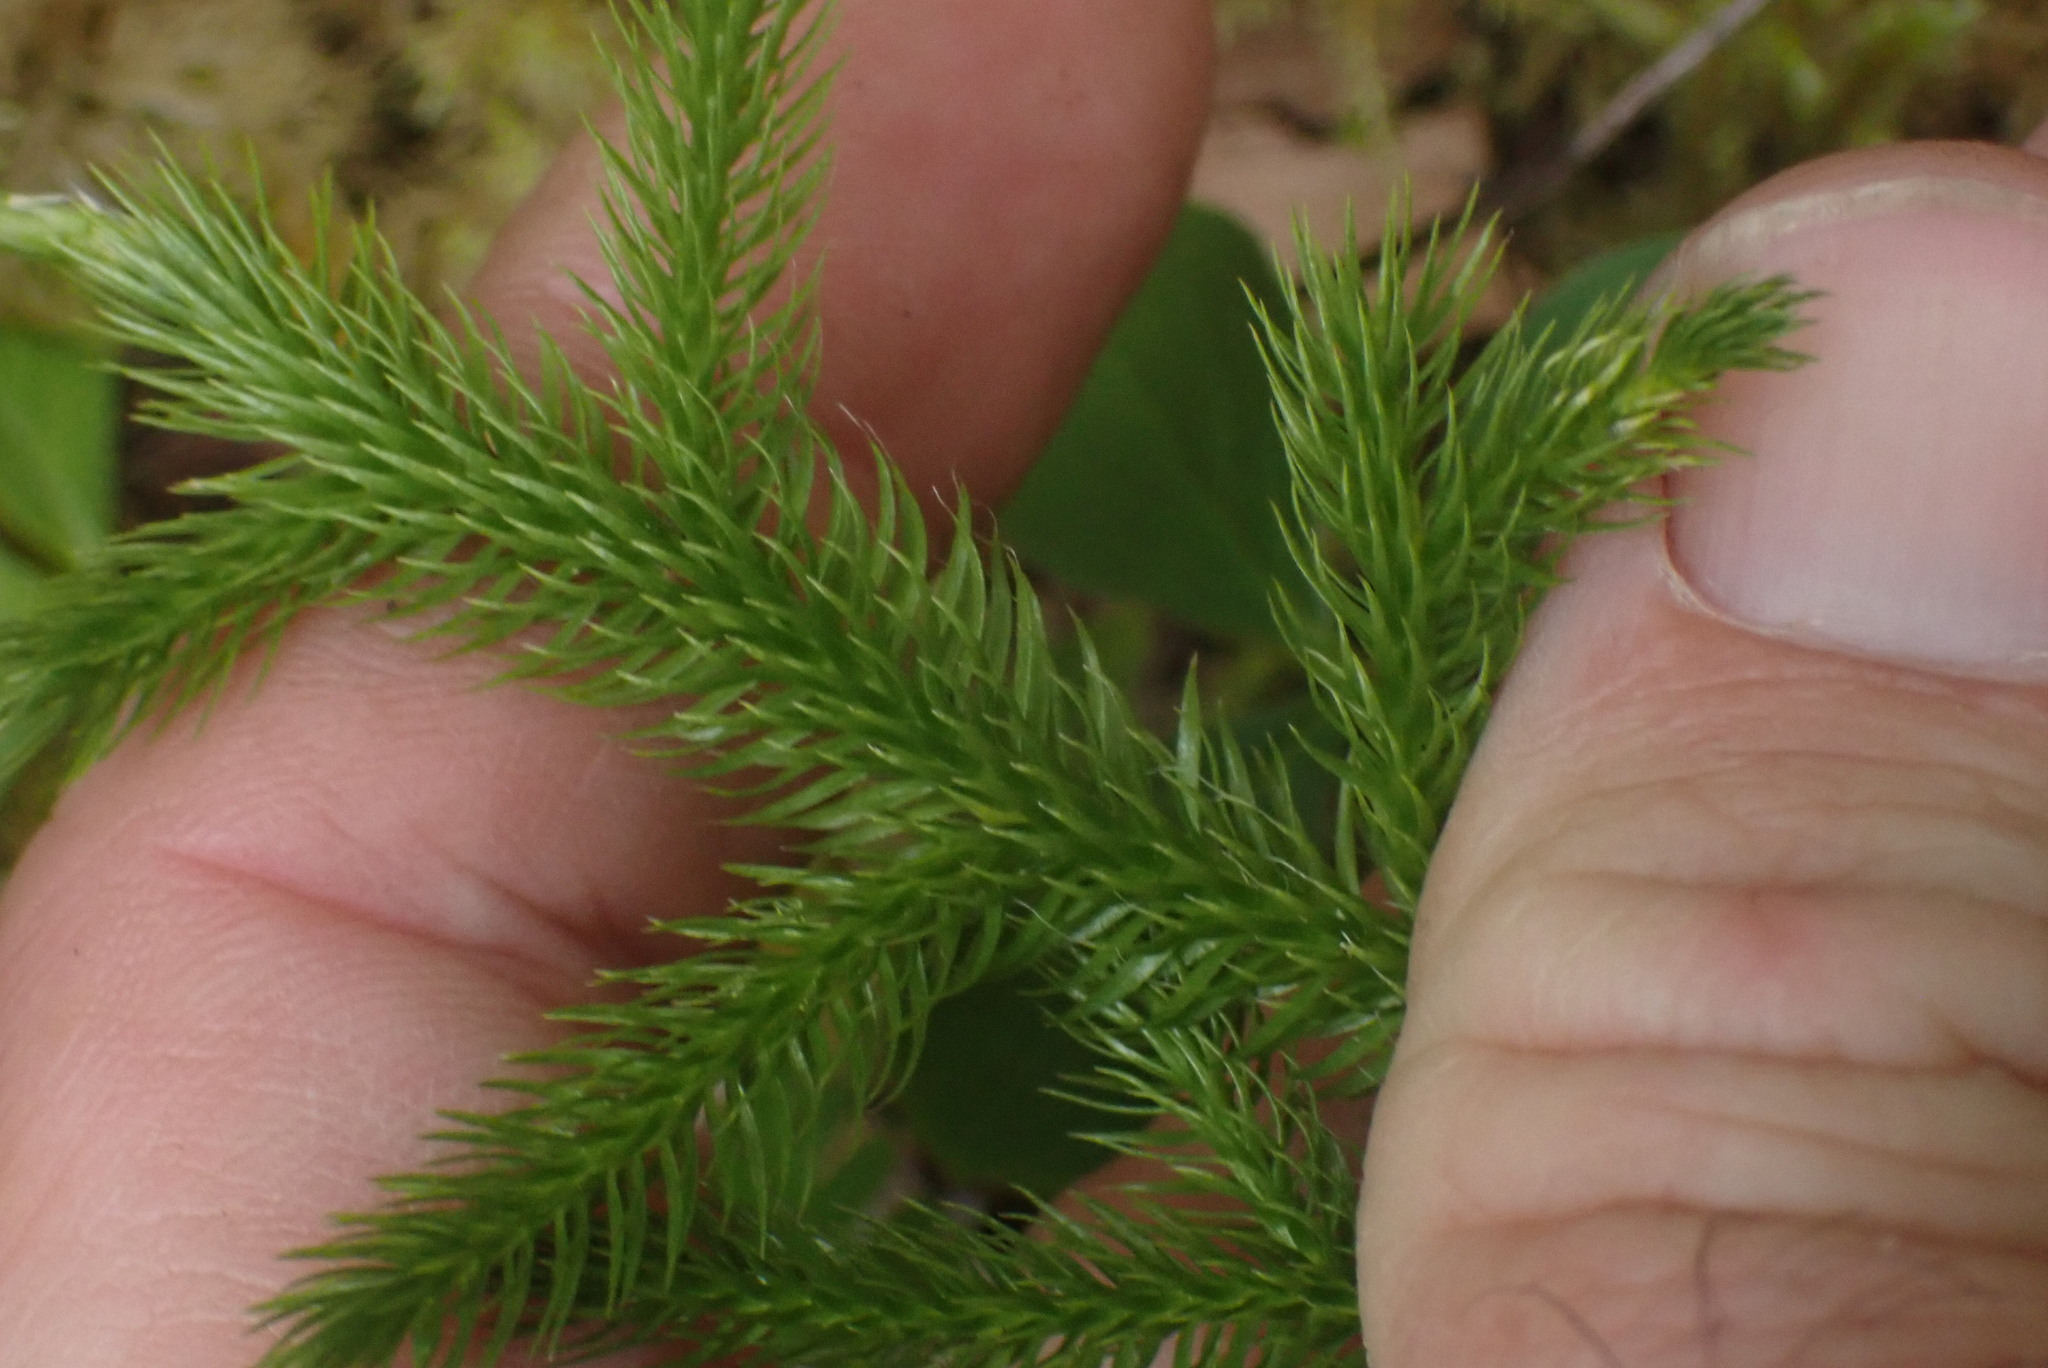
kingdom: Plantae
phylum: Tracheophyta
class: Lycopodiopsida
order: Lycopodiales
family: Lycopodiaceae
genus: Lycopodium
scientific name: Lycopodium clavatum
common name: Stag's-horn clubmoss
